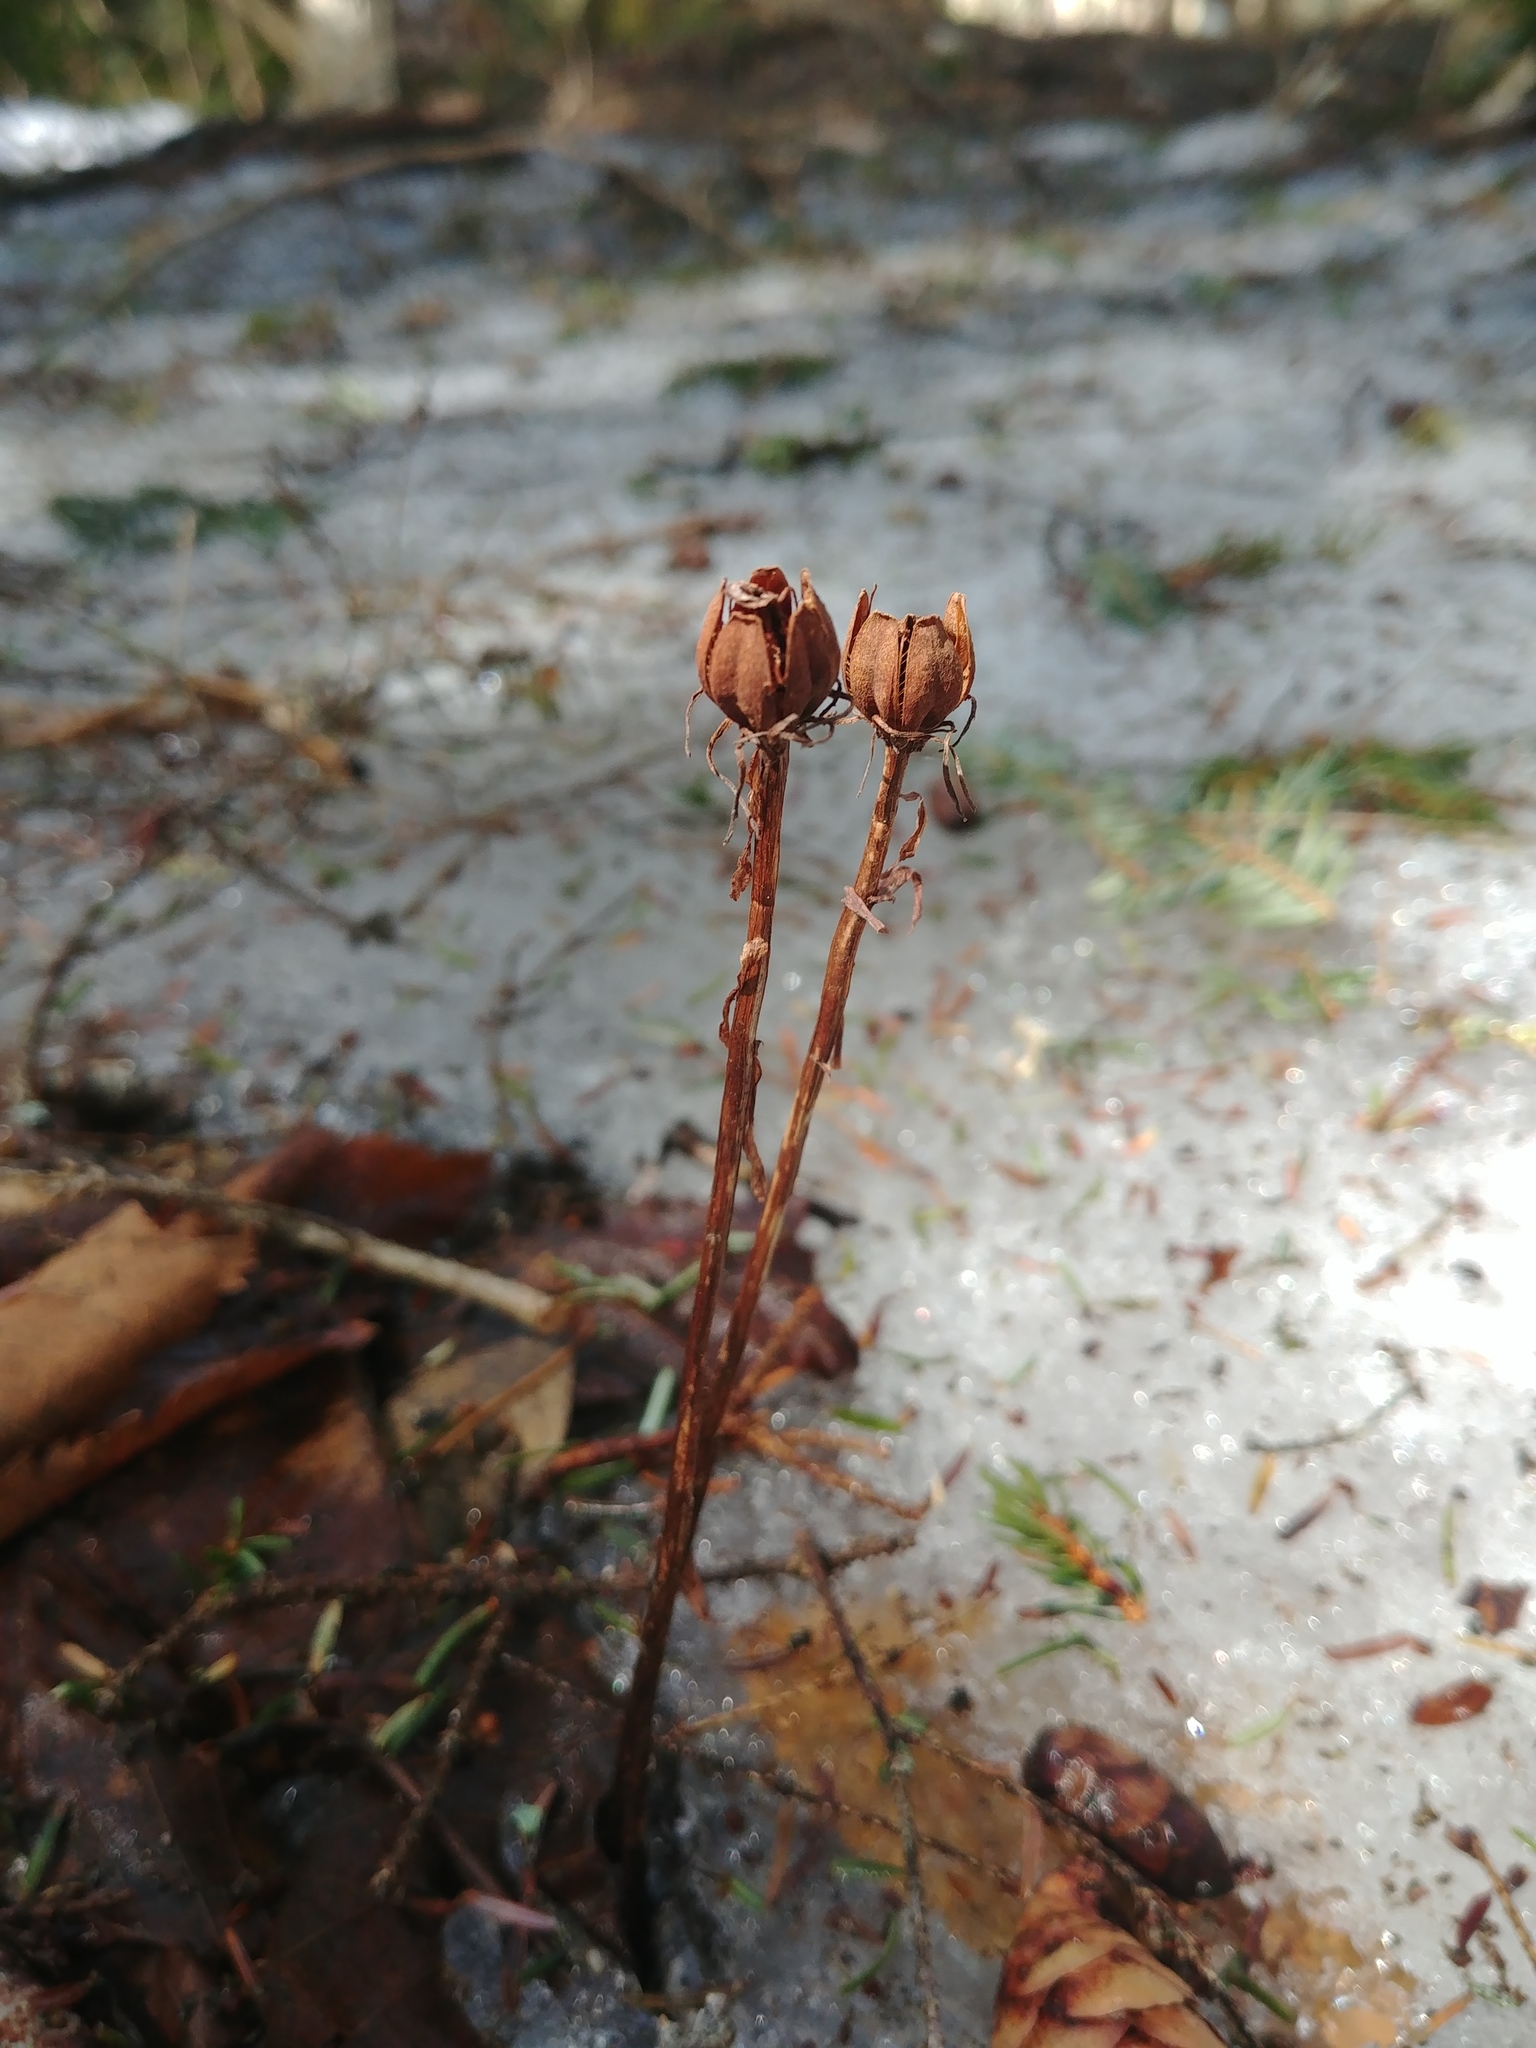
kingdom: Plantae
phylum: Tracheophyta
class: Magnoliopsida
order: Ericales
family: Ericaceae
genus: Monotropa
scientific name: Monotropa uniflora
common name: Convulsion root
